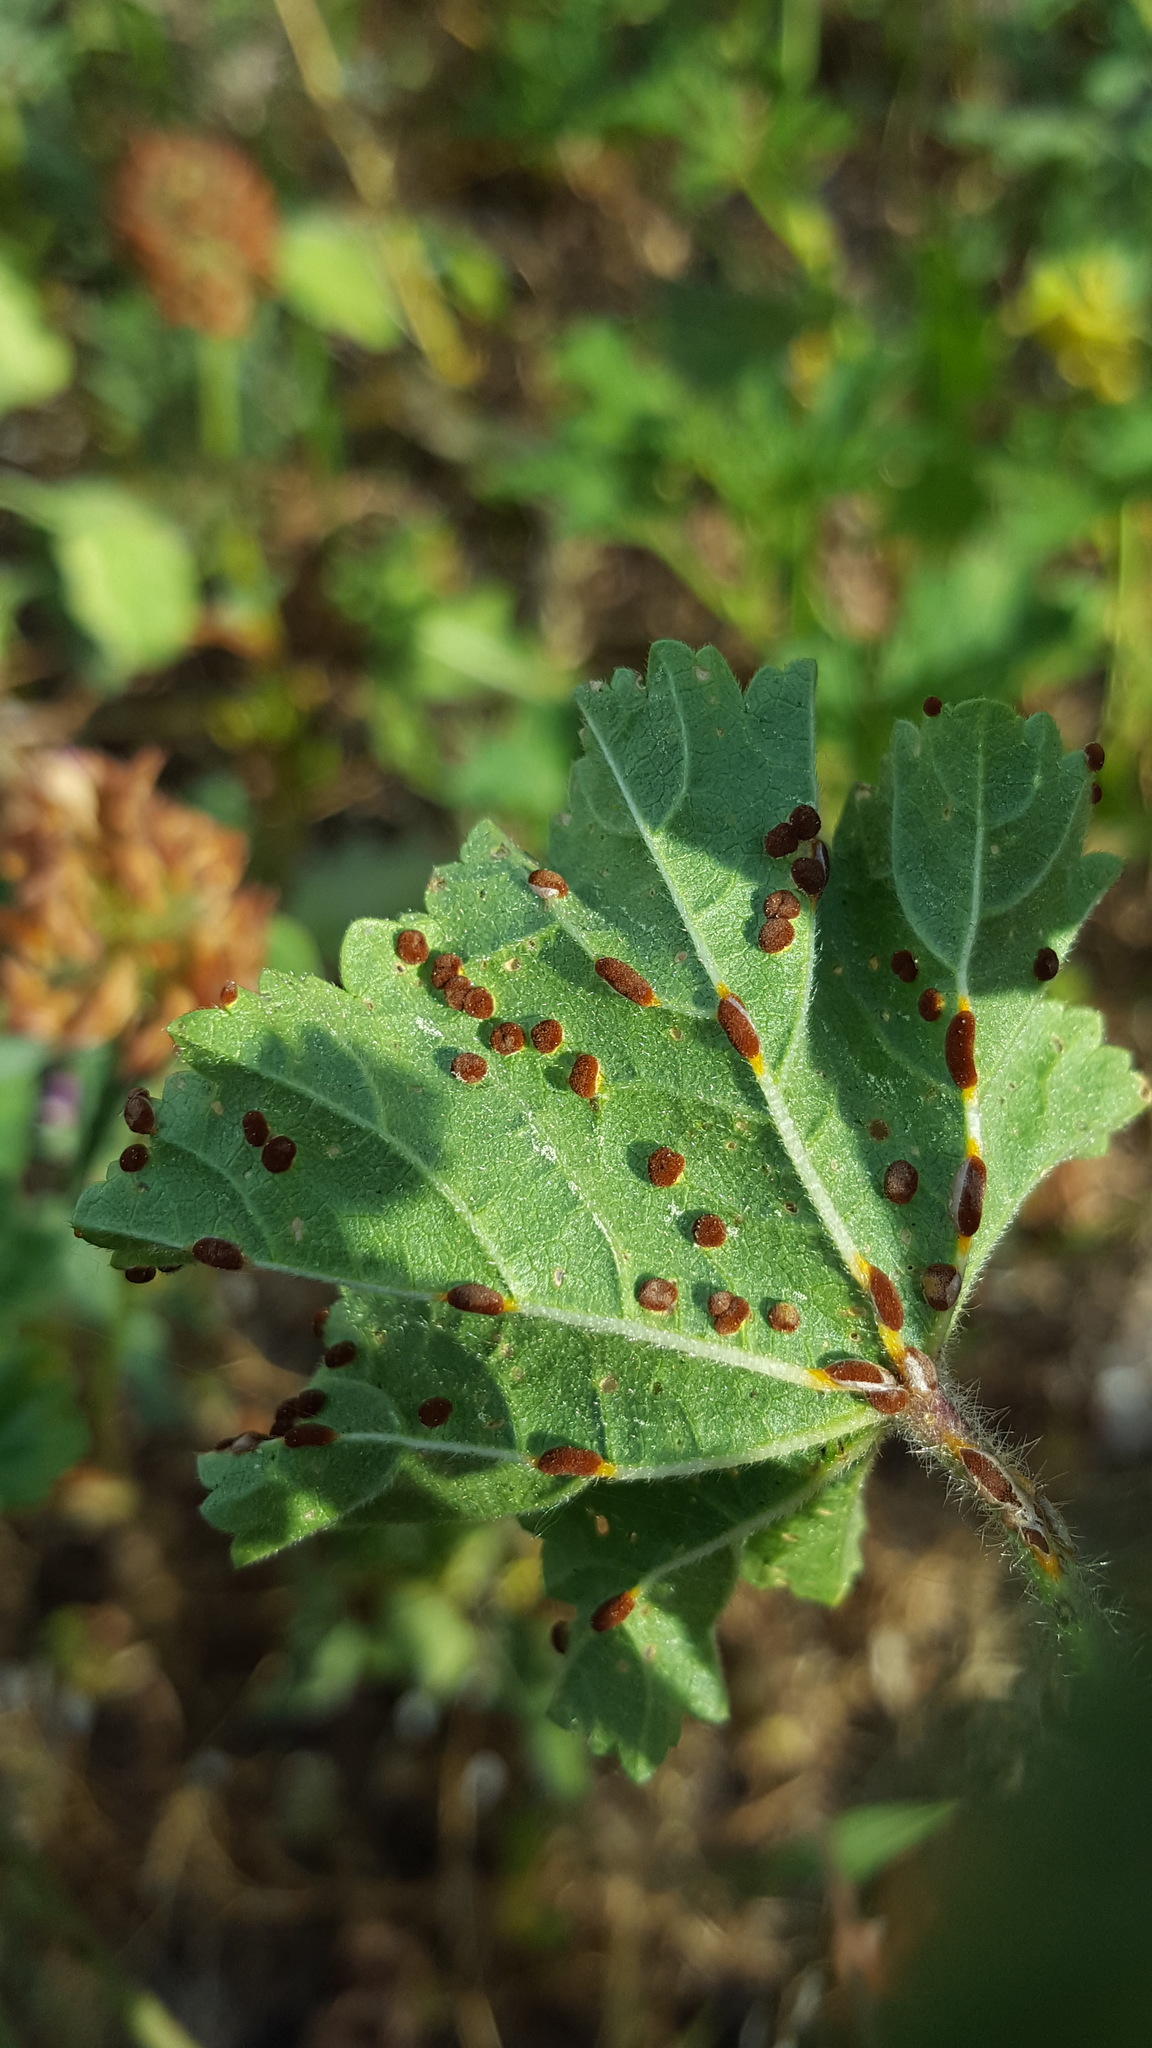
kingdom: Plantae
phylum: Tracheophyta
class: Magnoliopsida
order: Malvales
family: Malvaceae
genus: Malva
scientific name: Malva sylvestris
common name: Common mallow
